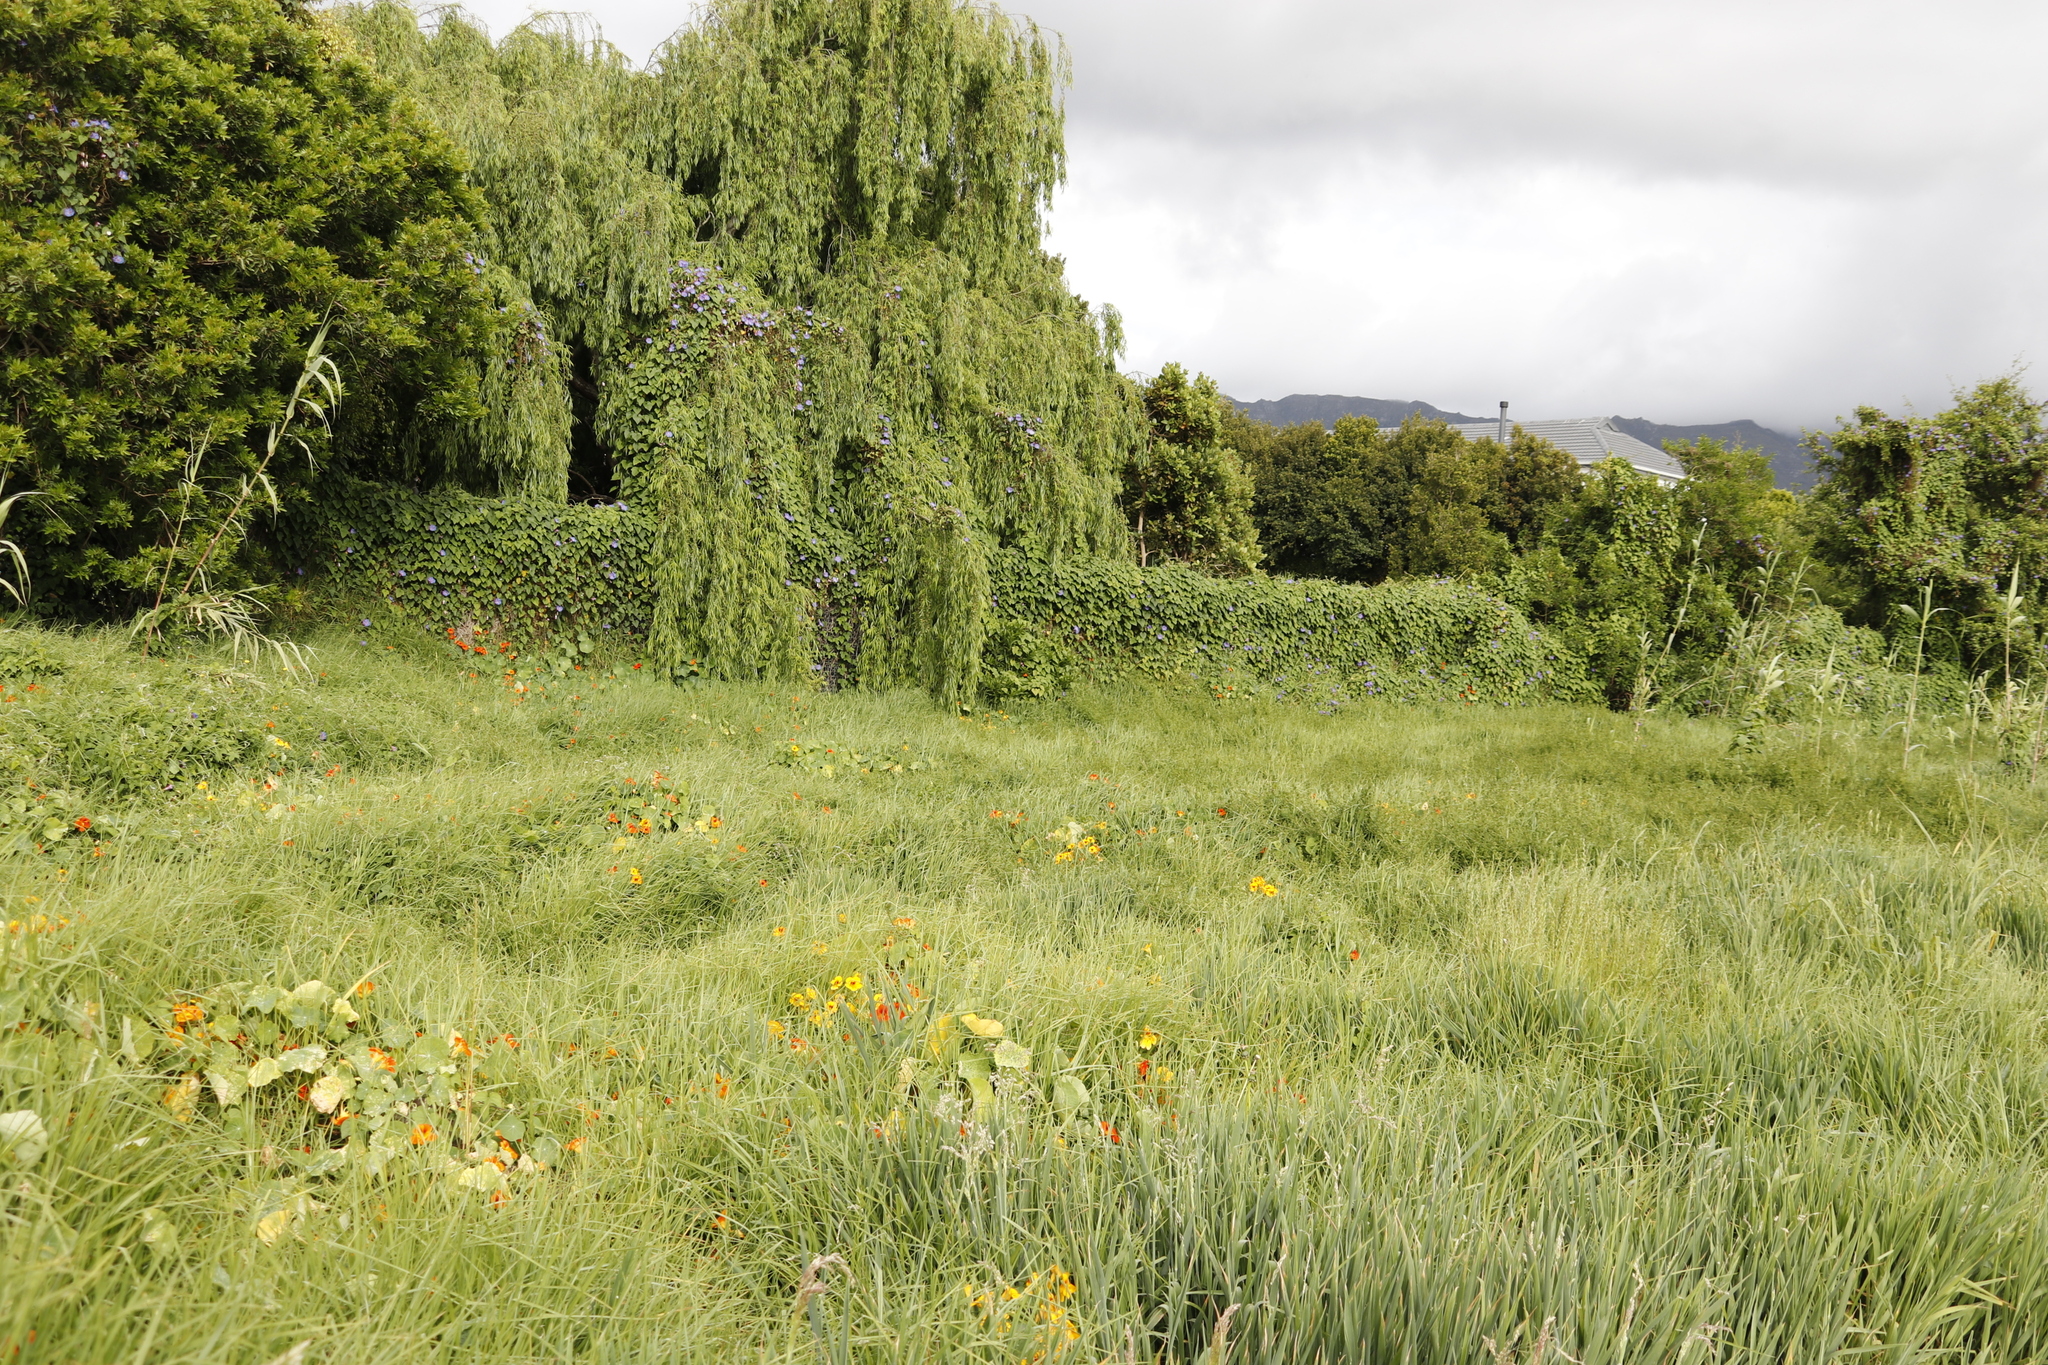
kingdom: Plantae
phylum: Tracheophyta
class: Magnoliopsida
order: Solanales
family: Convolvulaceae
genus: Ipomoea
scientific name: Ipomoea indica
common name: Blue dawnflower
